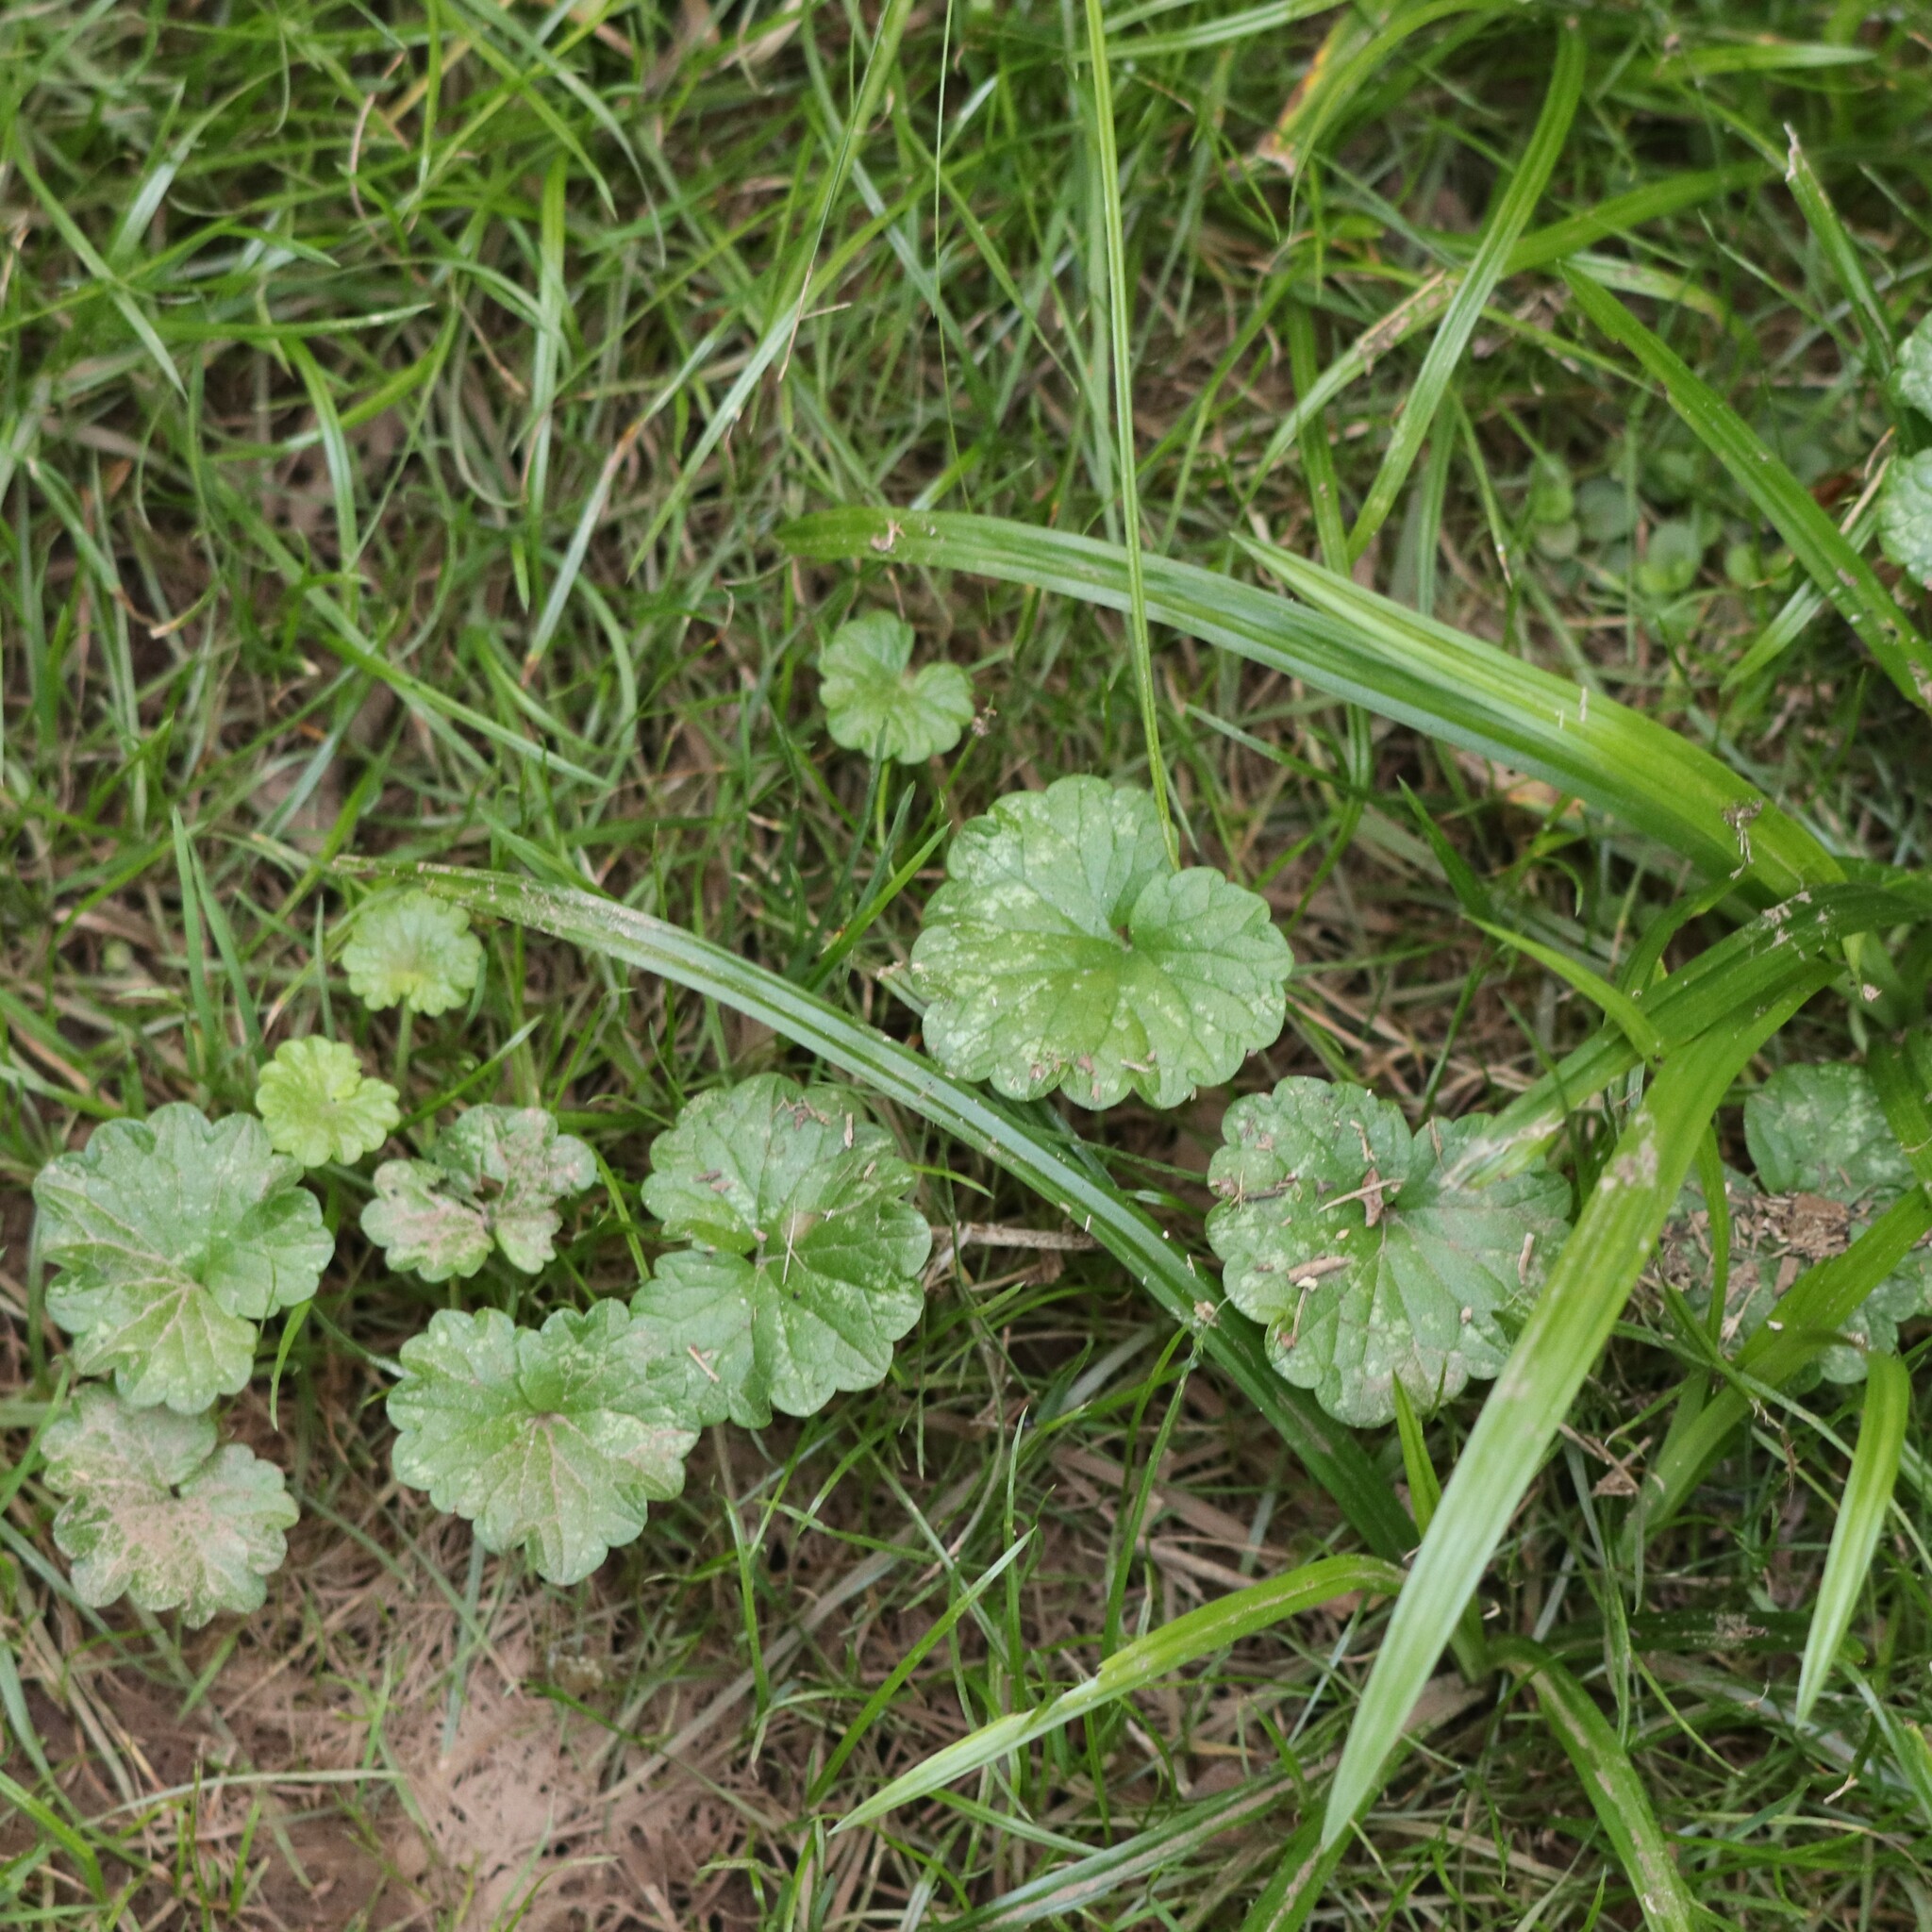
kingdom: Plantae
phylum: Tracheophyta
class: Magnoliopsida
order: Lamiales
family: Lamiaceae
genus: Glechoma
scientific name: Glechoma hederacea
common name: Ground ivy
